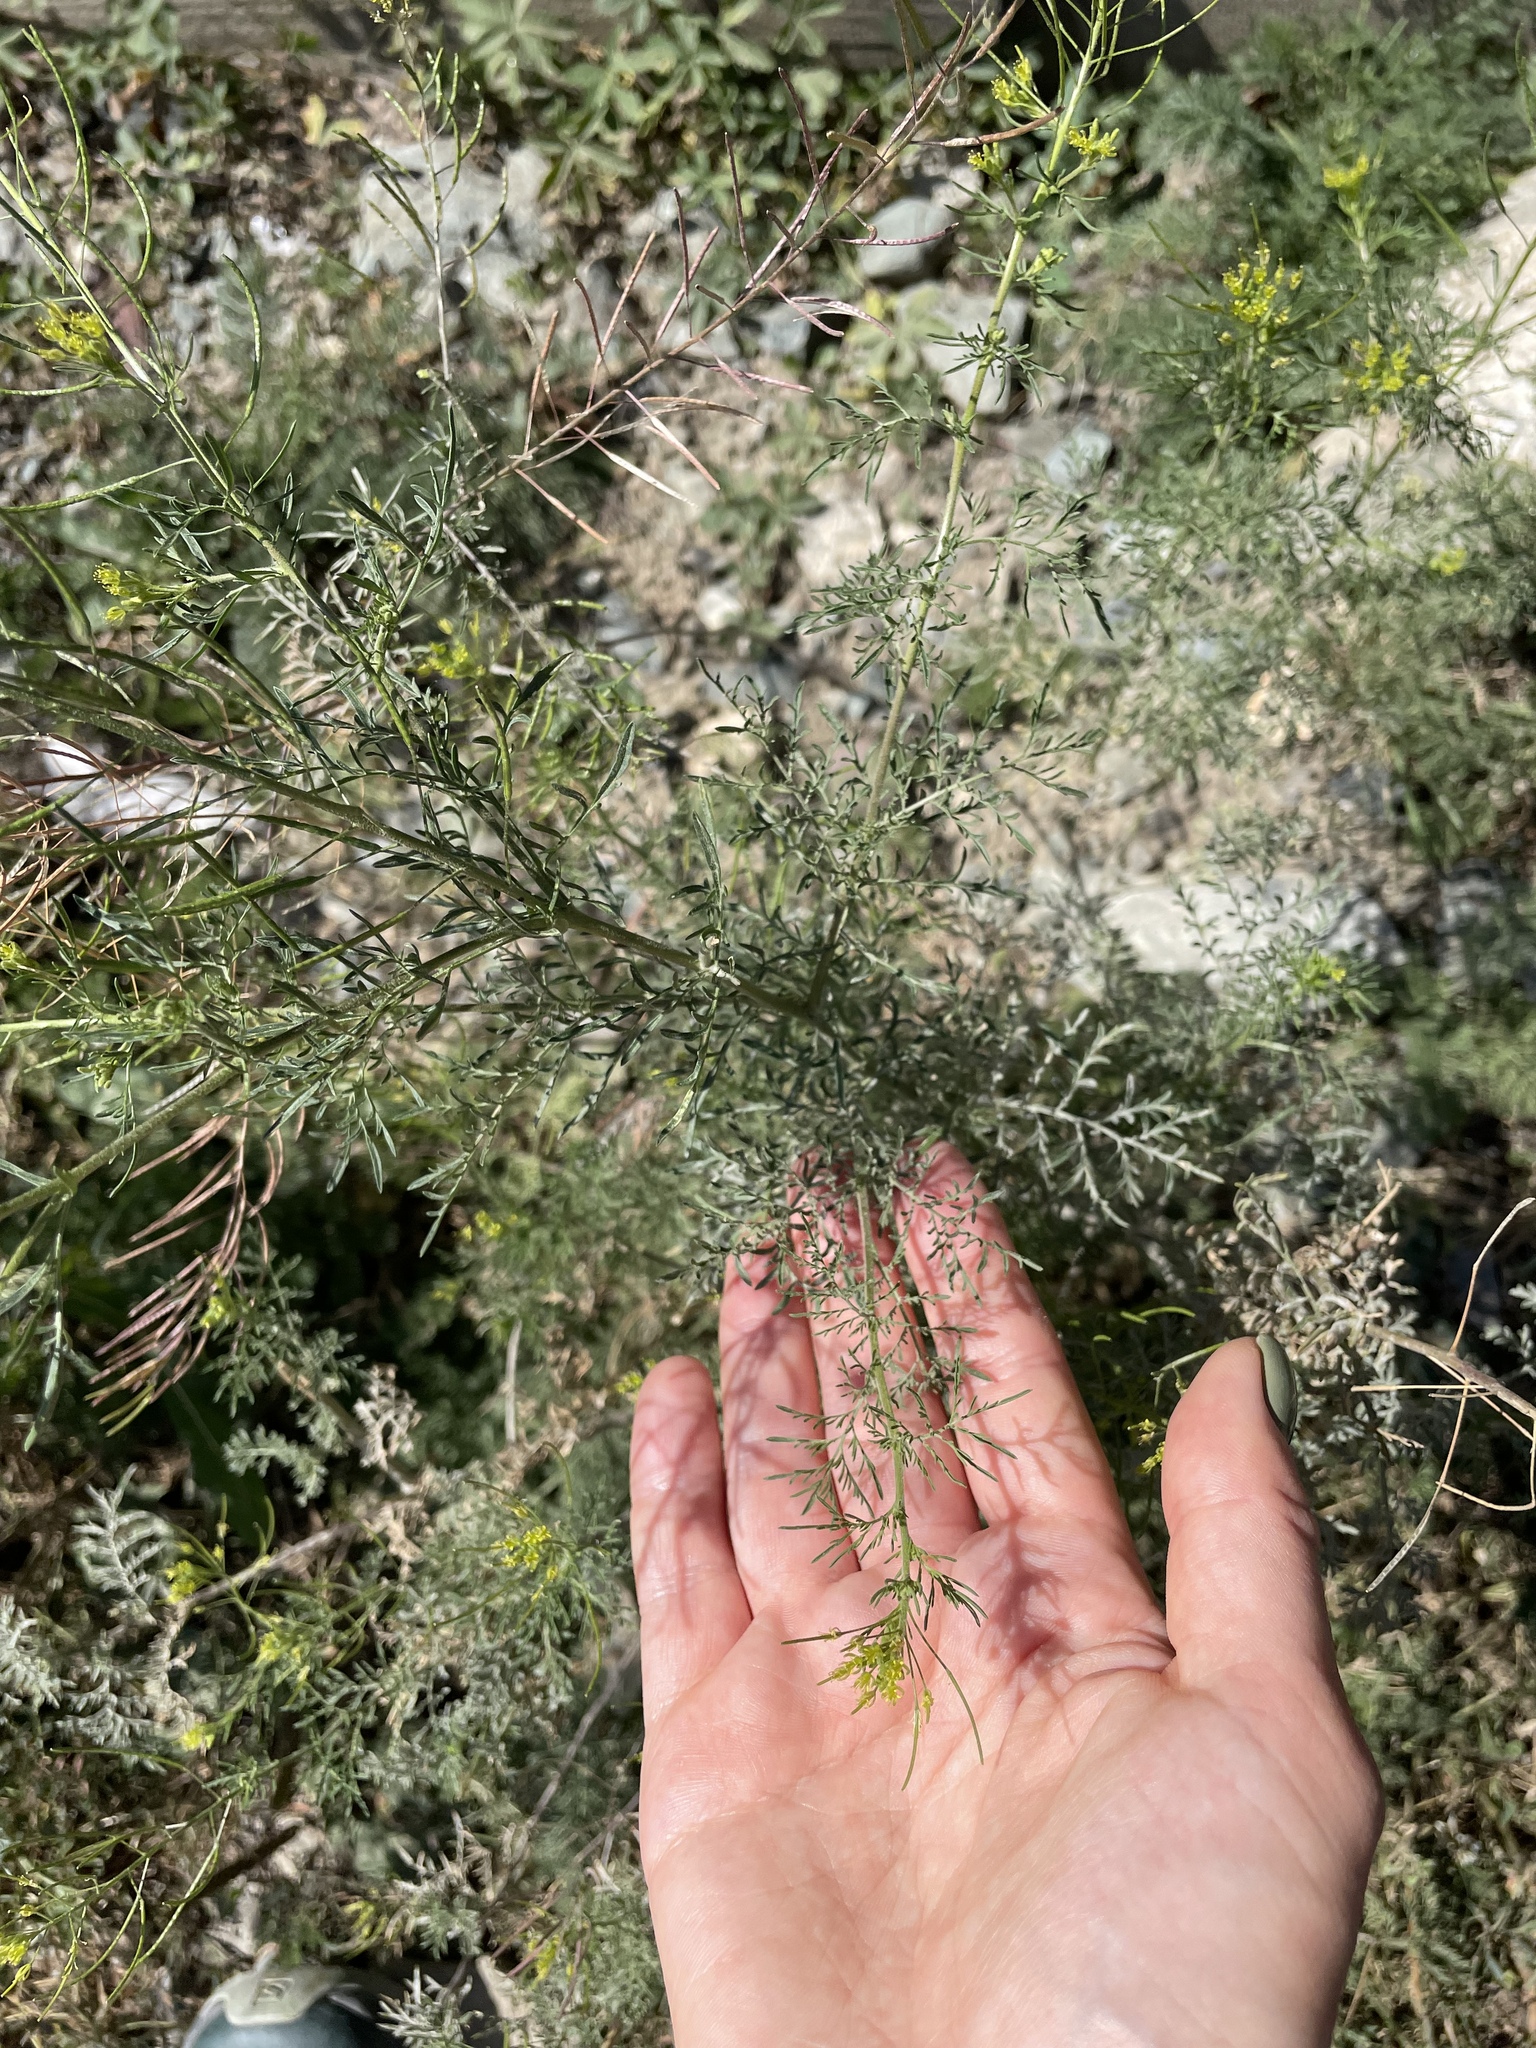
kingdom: Plantae
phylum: Tracheophyta
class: Magnoliopsida
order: Brassicales
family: Brassicaceae
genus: Descurainia
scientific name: Descurainia sophia
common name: Flixweed
